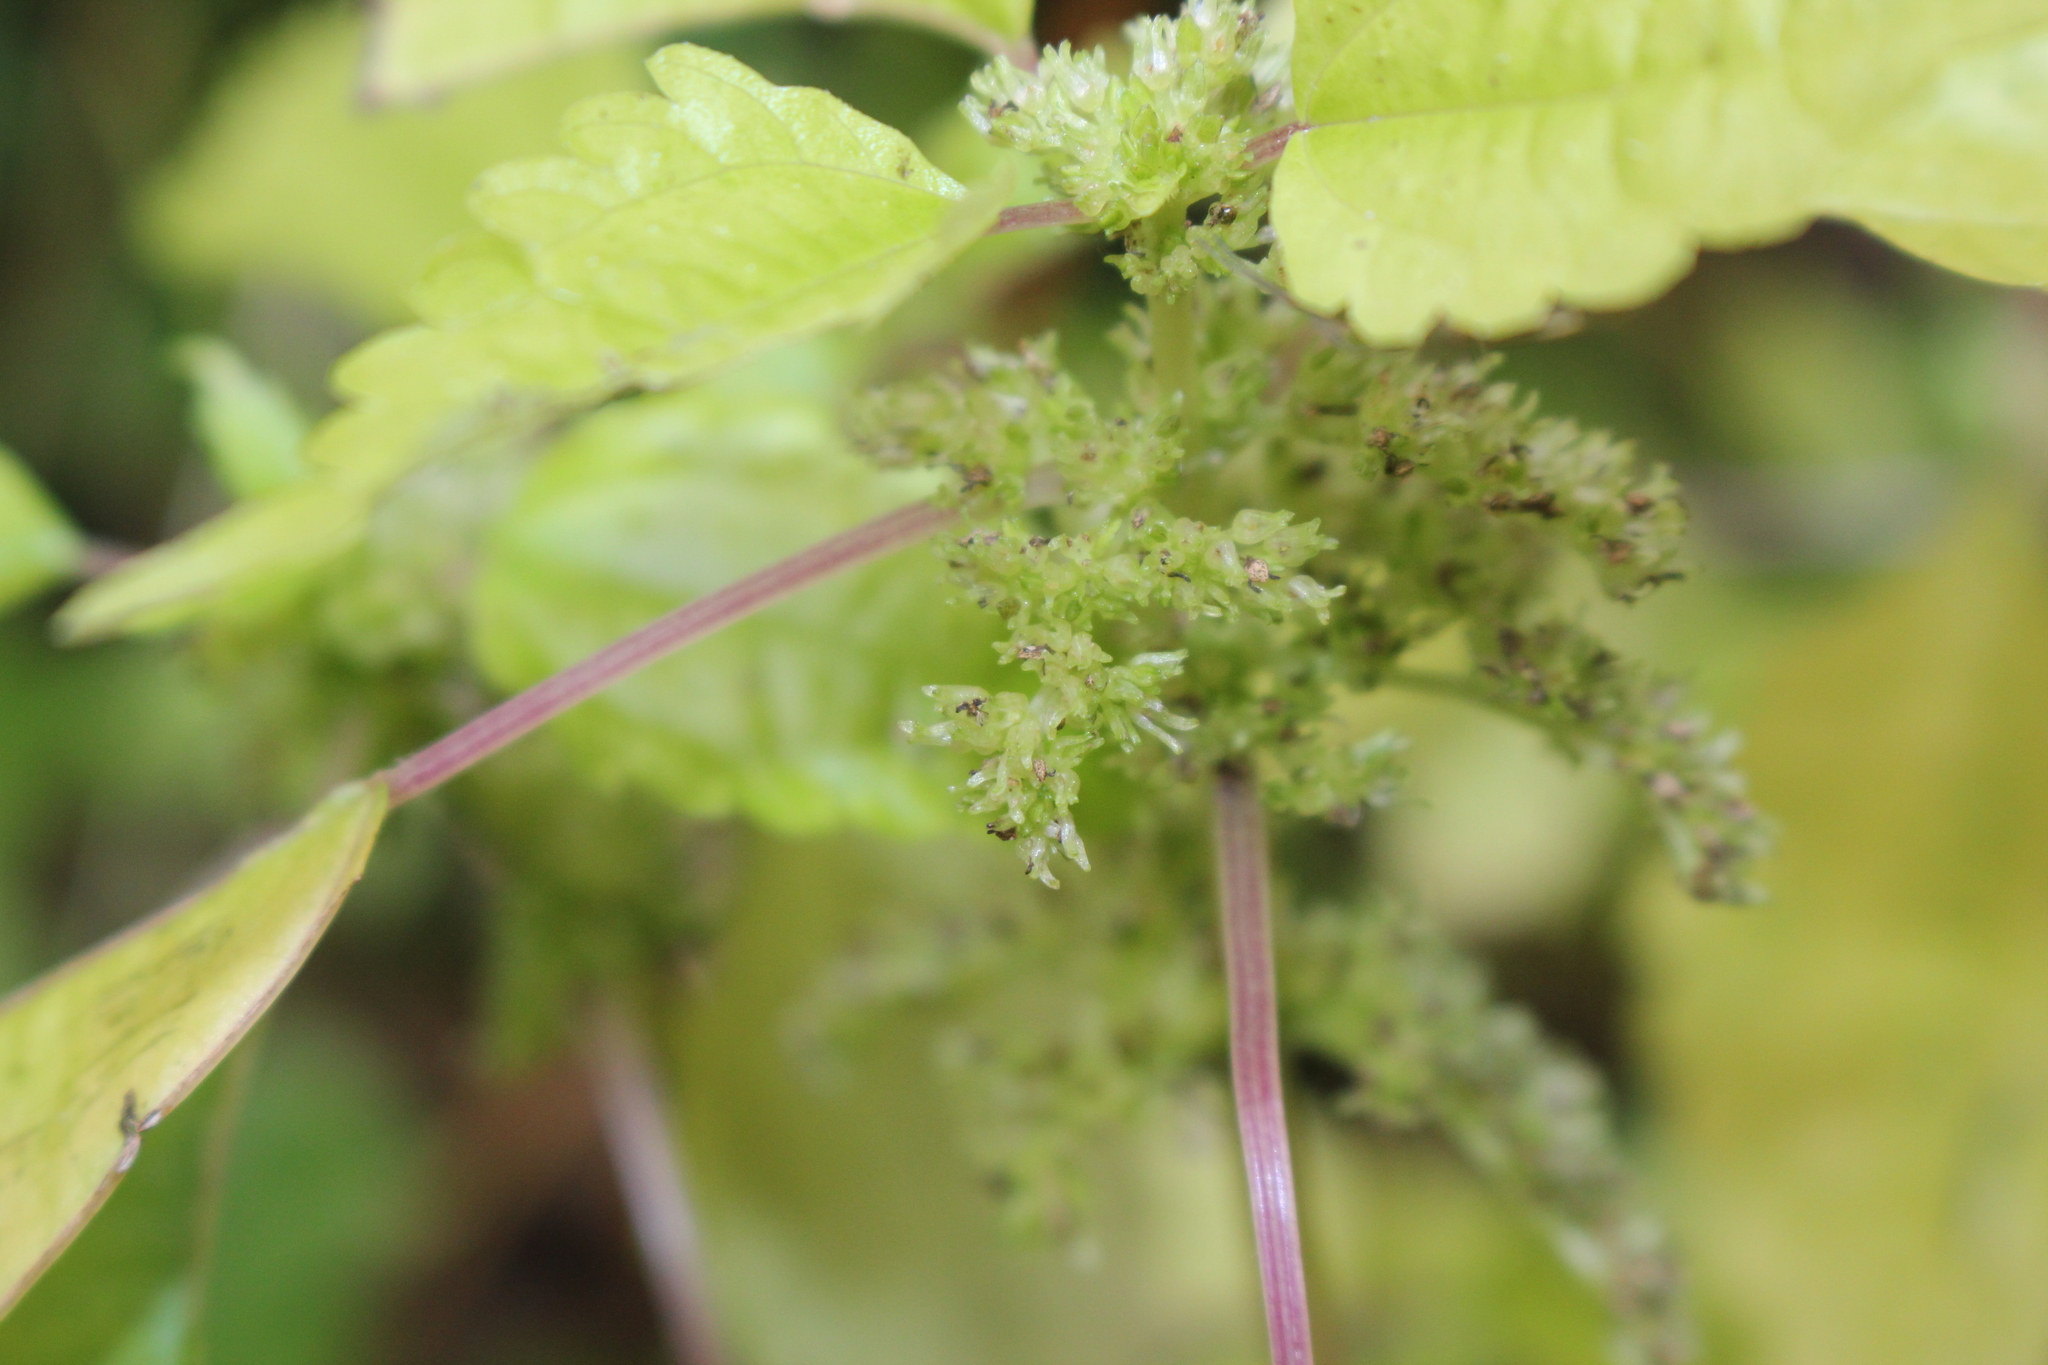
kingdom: Plantae
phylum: Tracheophyta
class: Magnoliopsida
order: Rosales
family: Urticaceae
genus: Pilea
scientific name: Pilea pumila
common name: Clearweed
